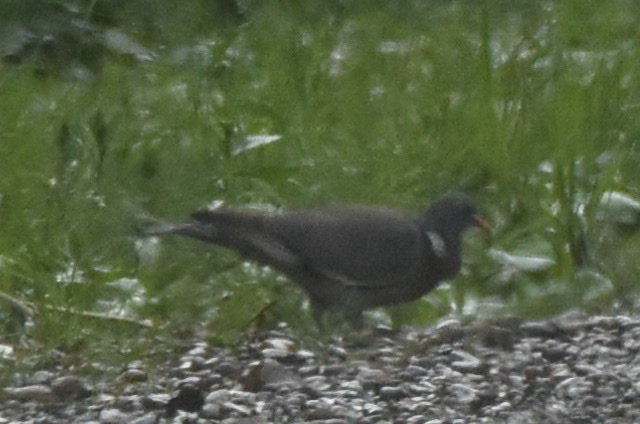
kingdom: Animalia
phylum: Chordata
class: Aves
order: Columbiformes
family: Columbidae
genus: Columba
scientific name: Columba palumbus
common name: Common wood pigeon
